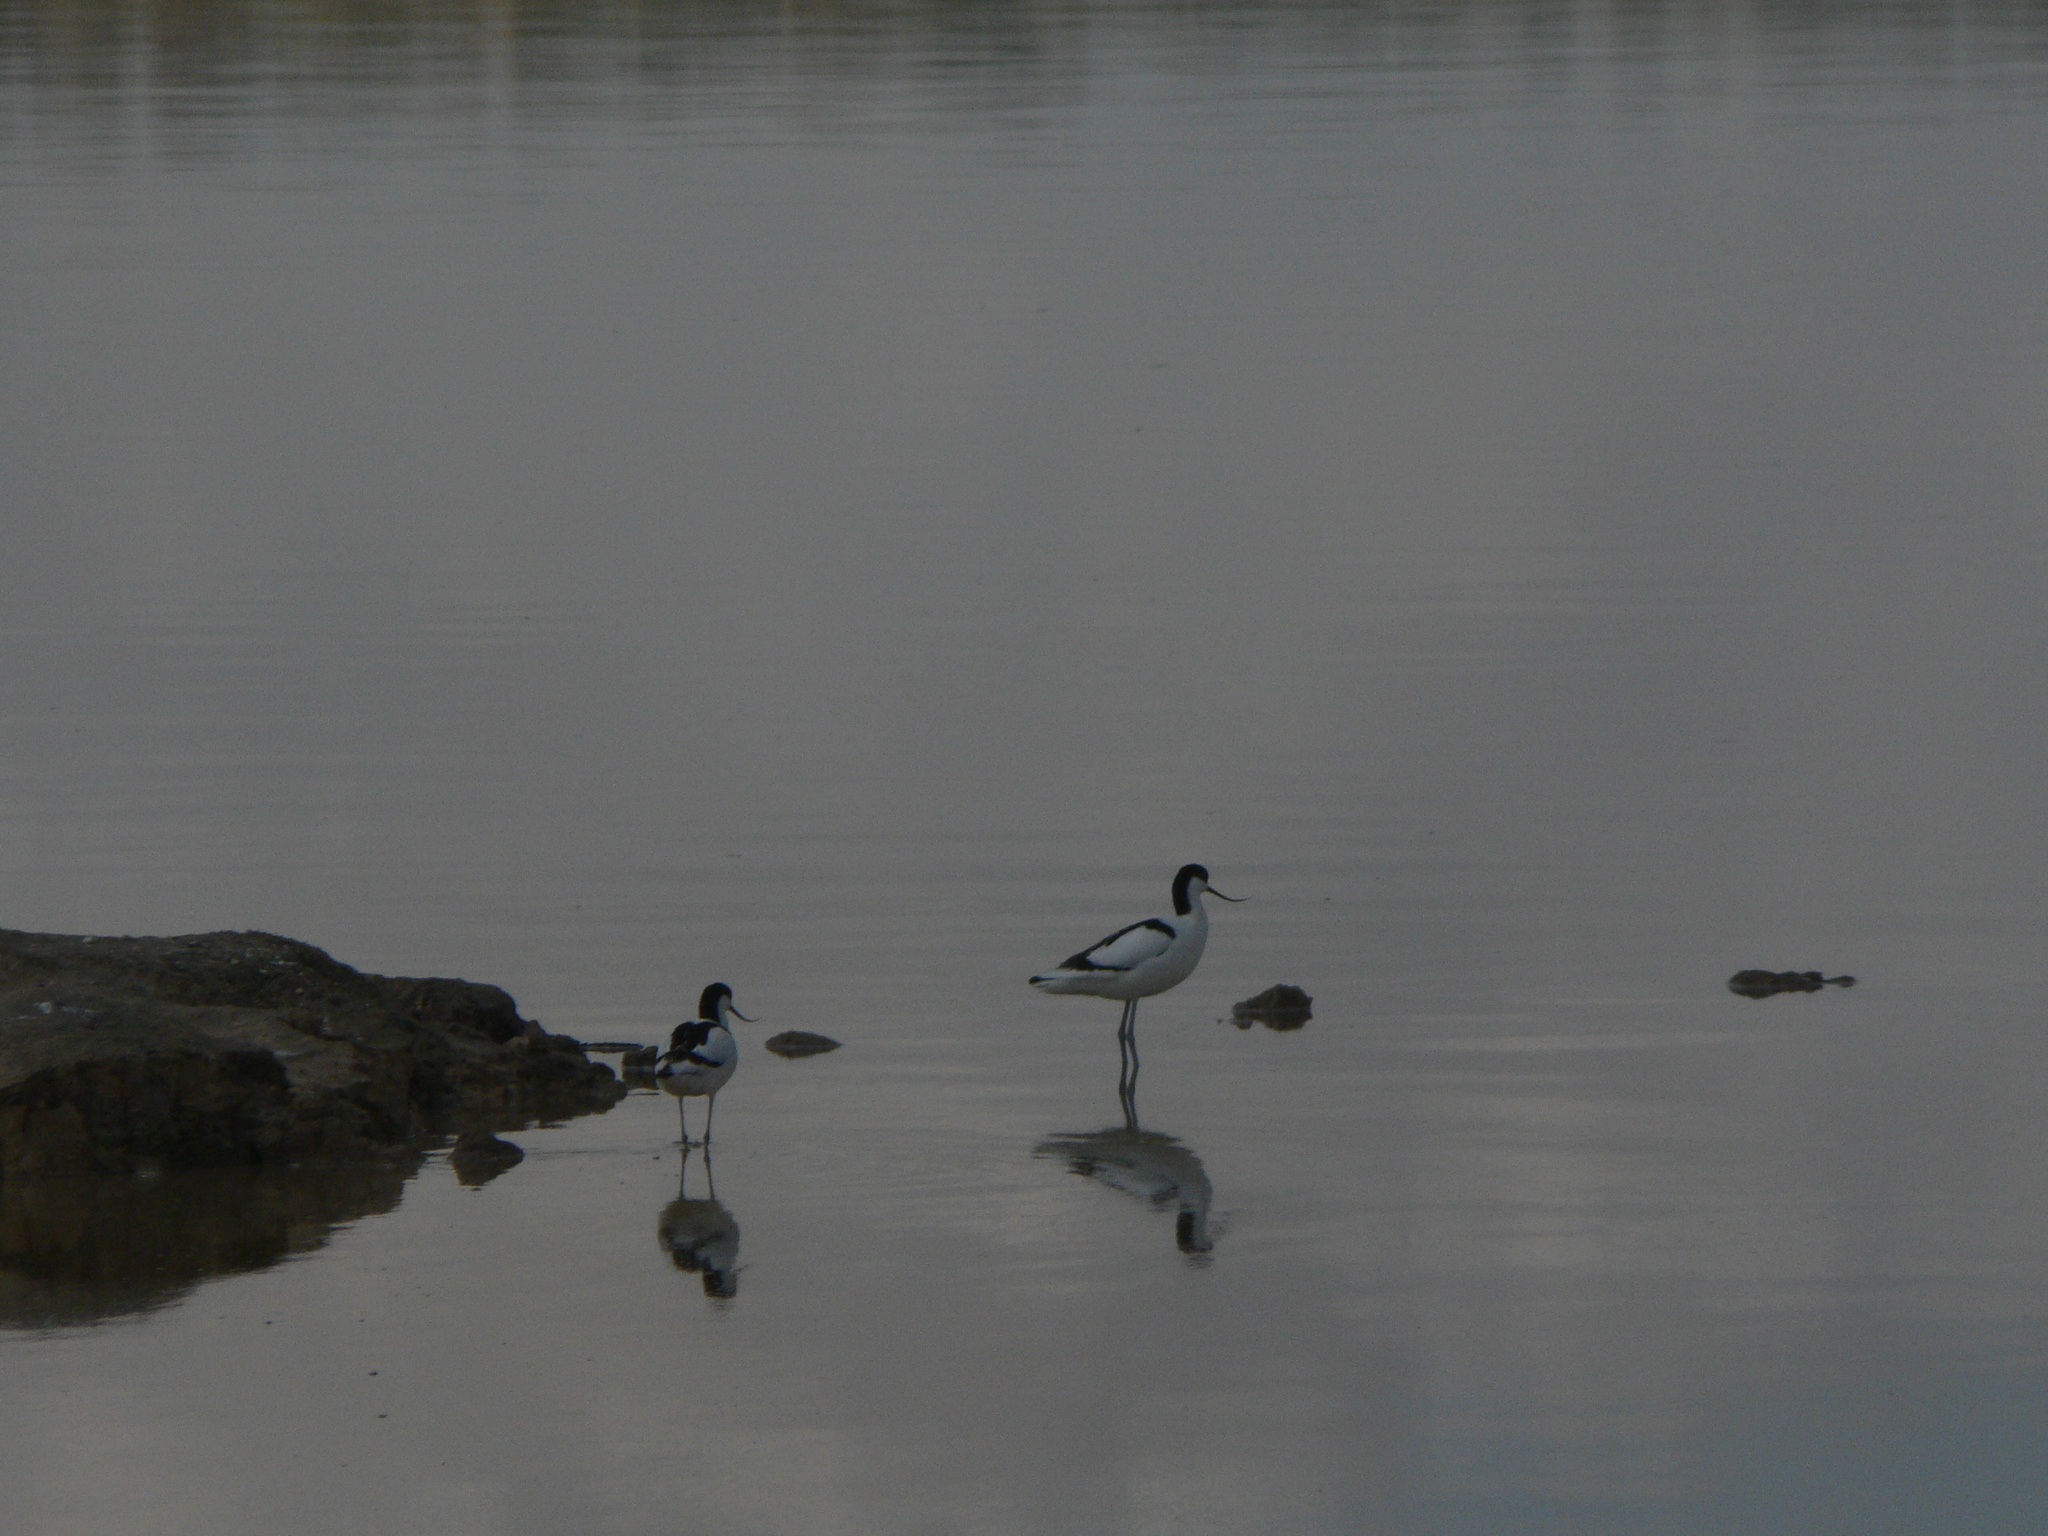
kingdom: Animalia
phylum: Chordata
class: Aves
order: Charadriiformes
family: Recurvirostridae
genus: Recurvirostra
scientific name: Recurvirostra avosetta
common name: Pied avocet
